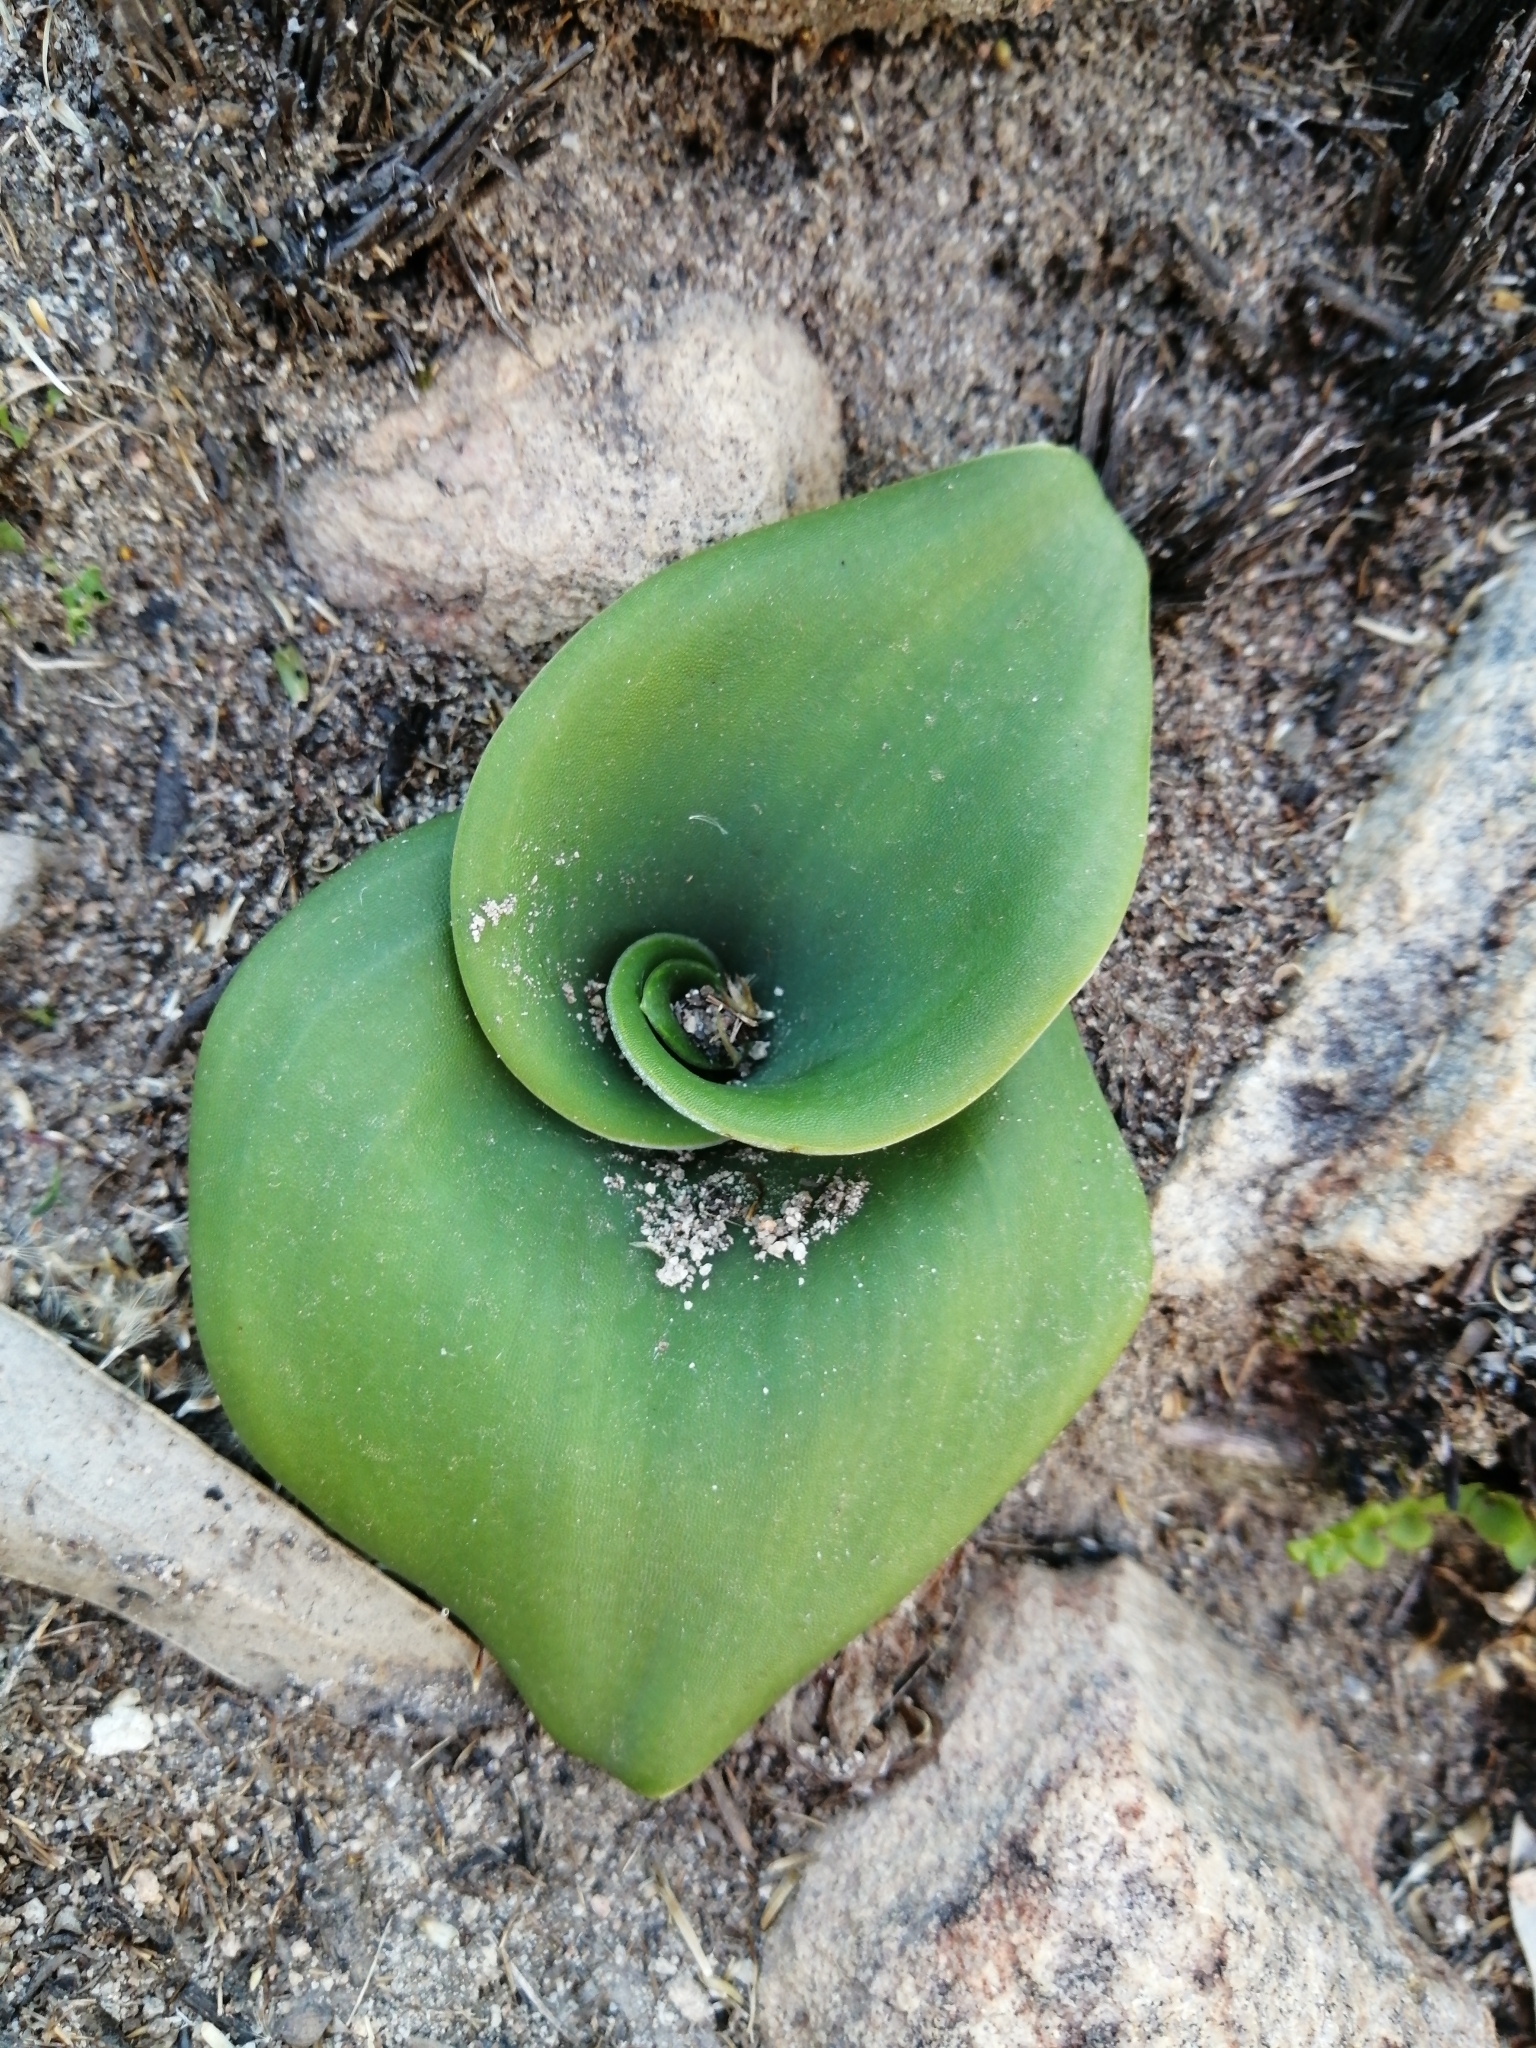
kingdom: Plantae
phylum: Tracheophyta
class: Liliopsida
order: Asparagales
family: Orchidaceae
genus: Satyrium
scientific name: Satyrium erectum
